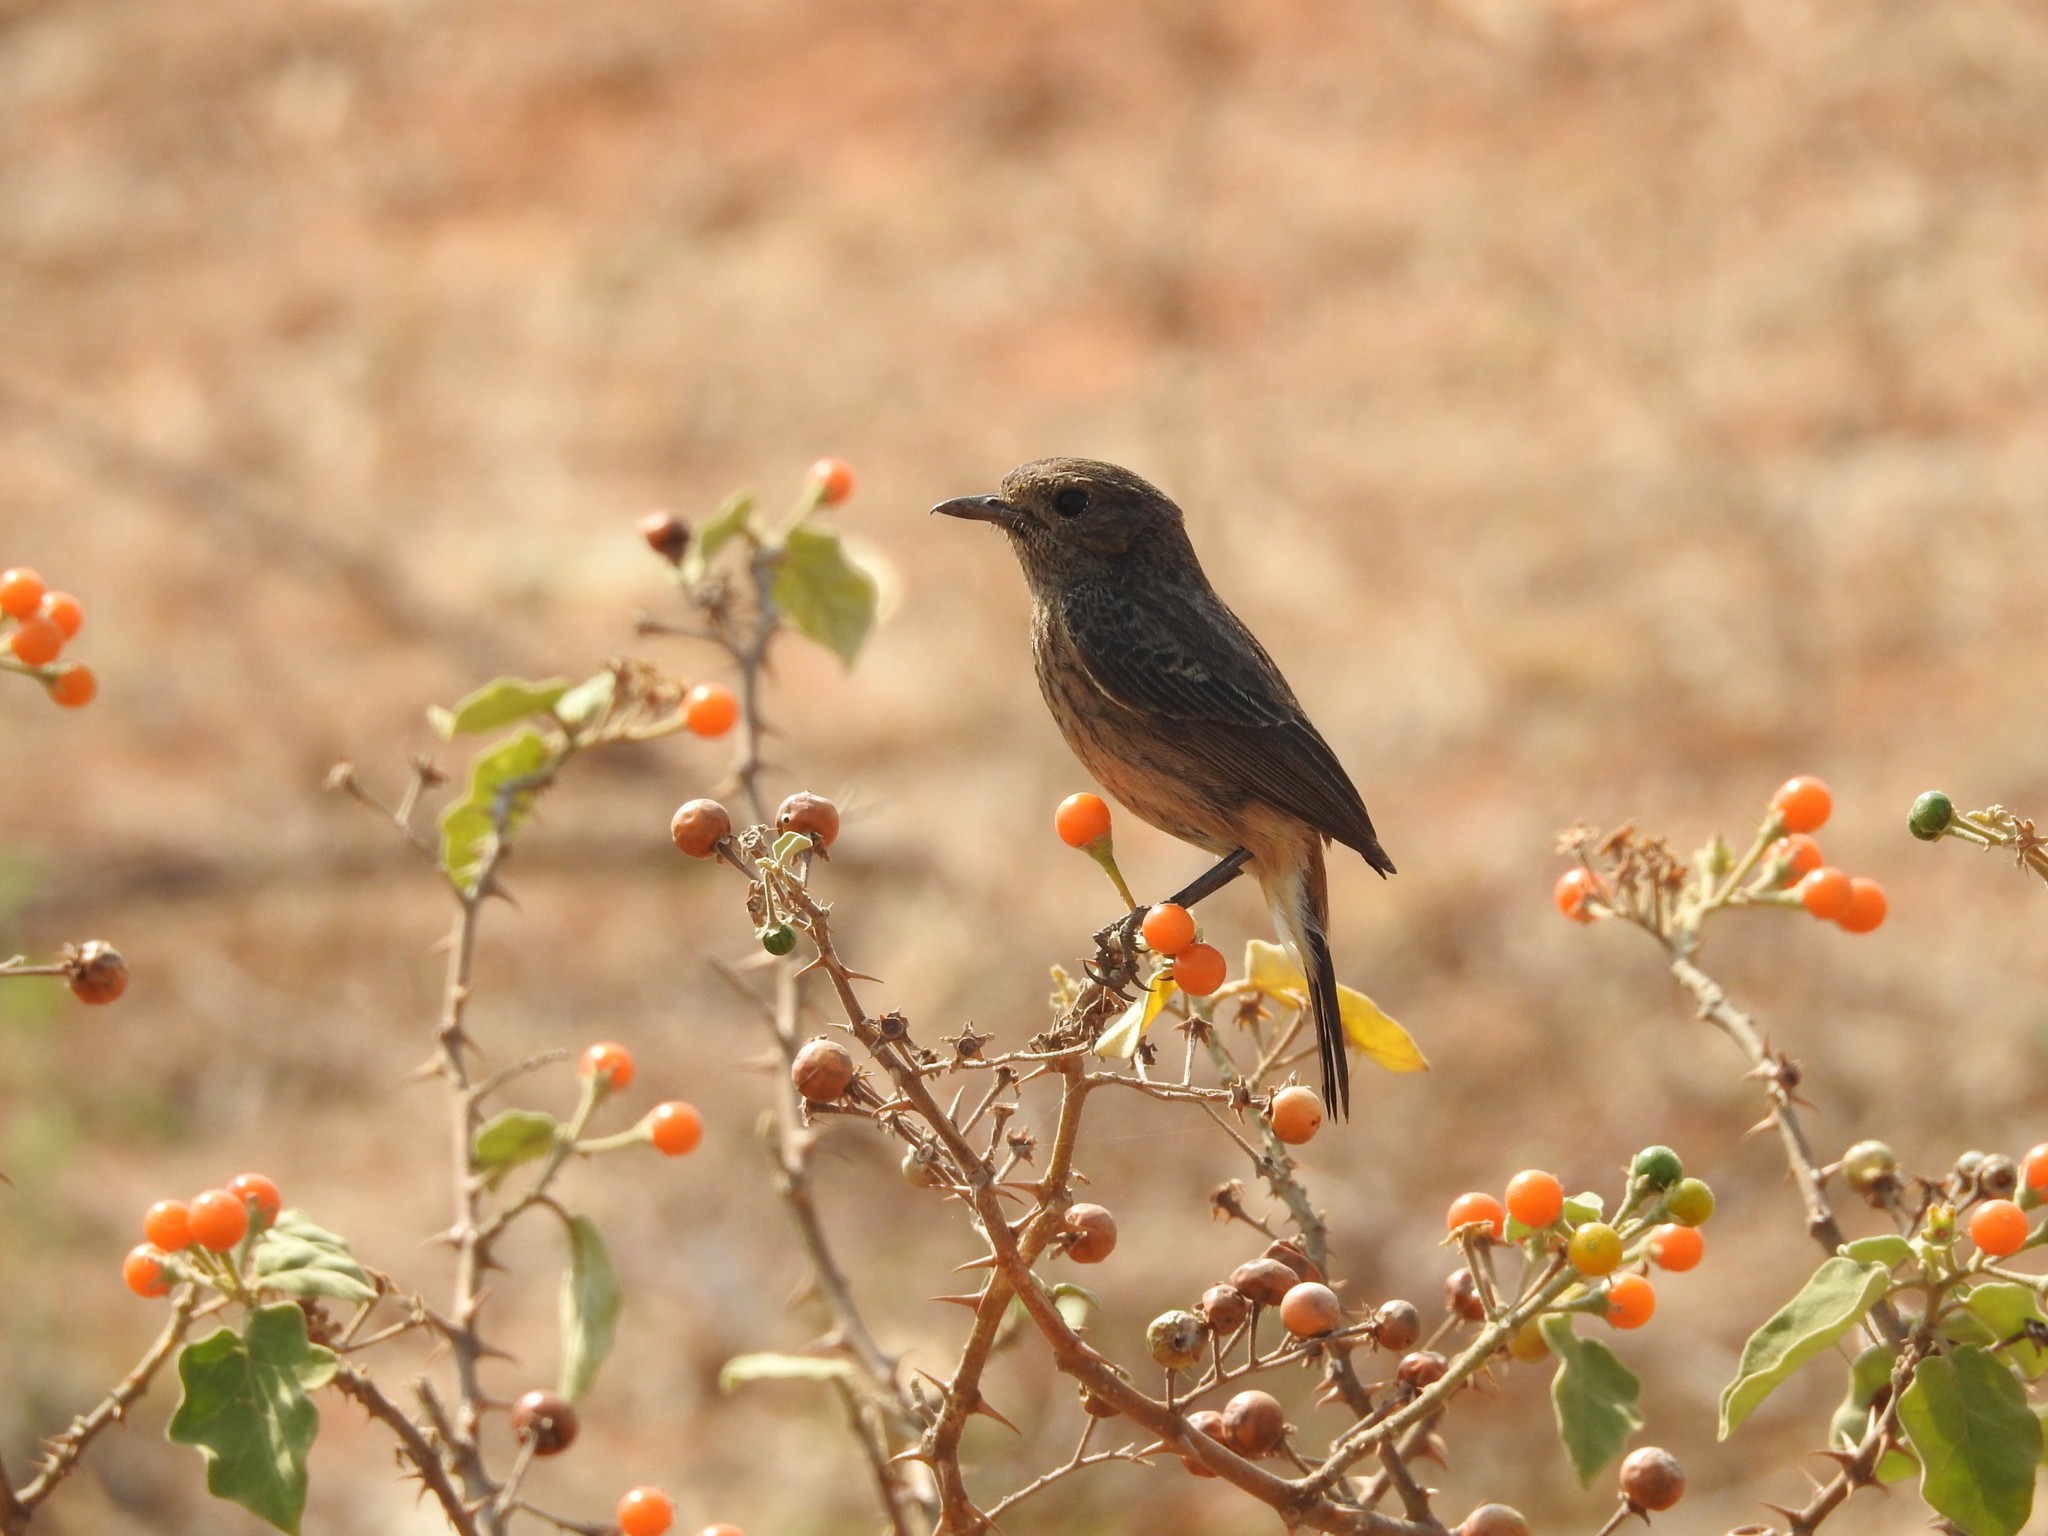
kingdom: Animalia
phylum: Chordata
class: Aves
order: Passeriformes
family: Muscicapidae
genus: Saxicola
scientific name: Saxicola caprata
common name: Pied bush chat
